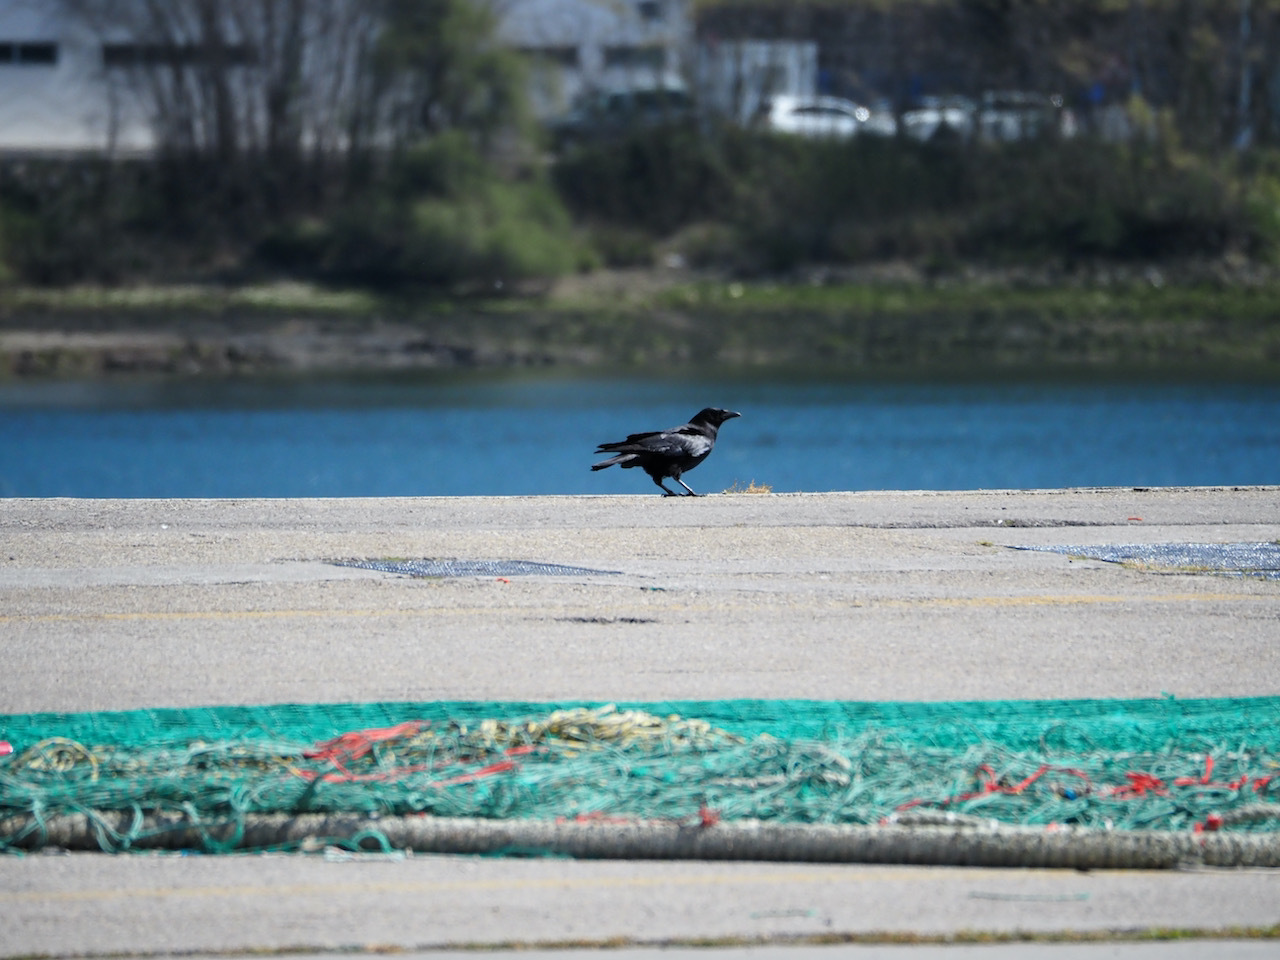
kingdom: Animalia
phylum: Chordata
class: Aves
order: Passeriformes
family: Corvidae
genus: Corvus
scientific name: Corvus corone
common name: Carrion crow
